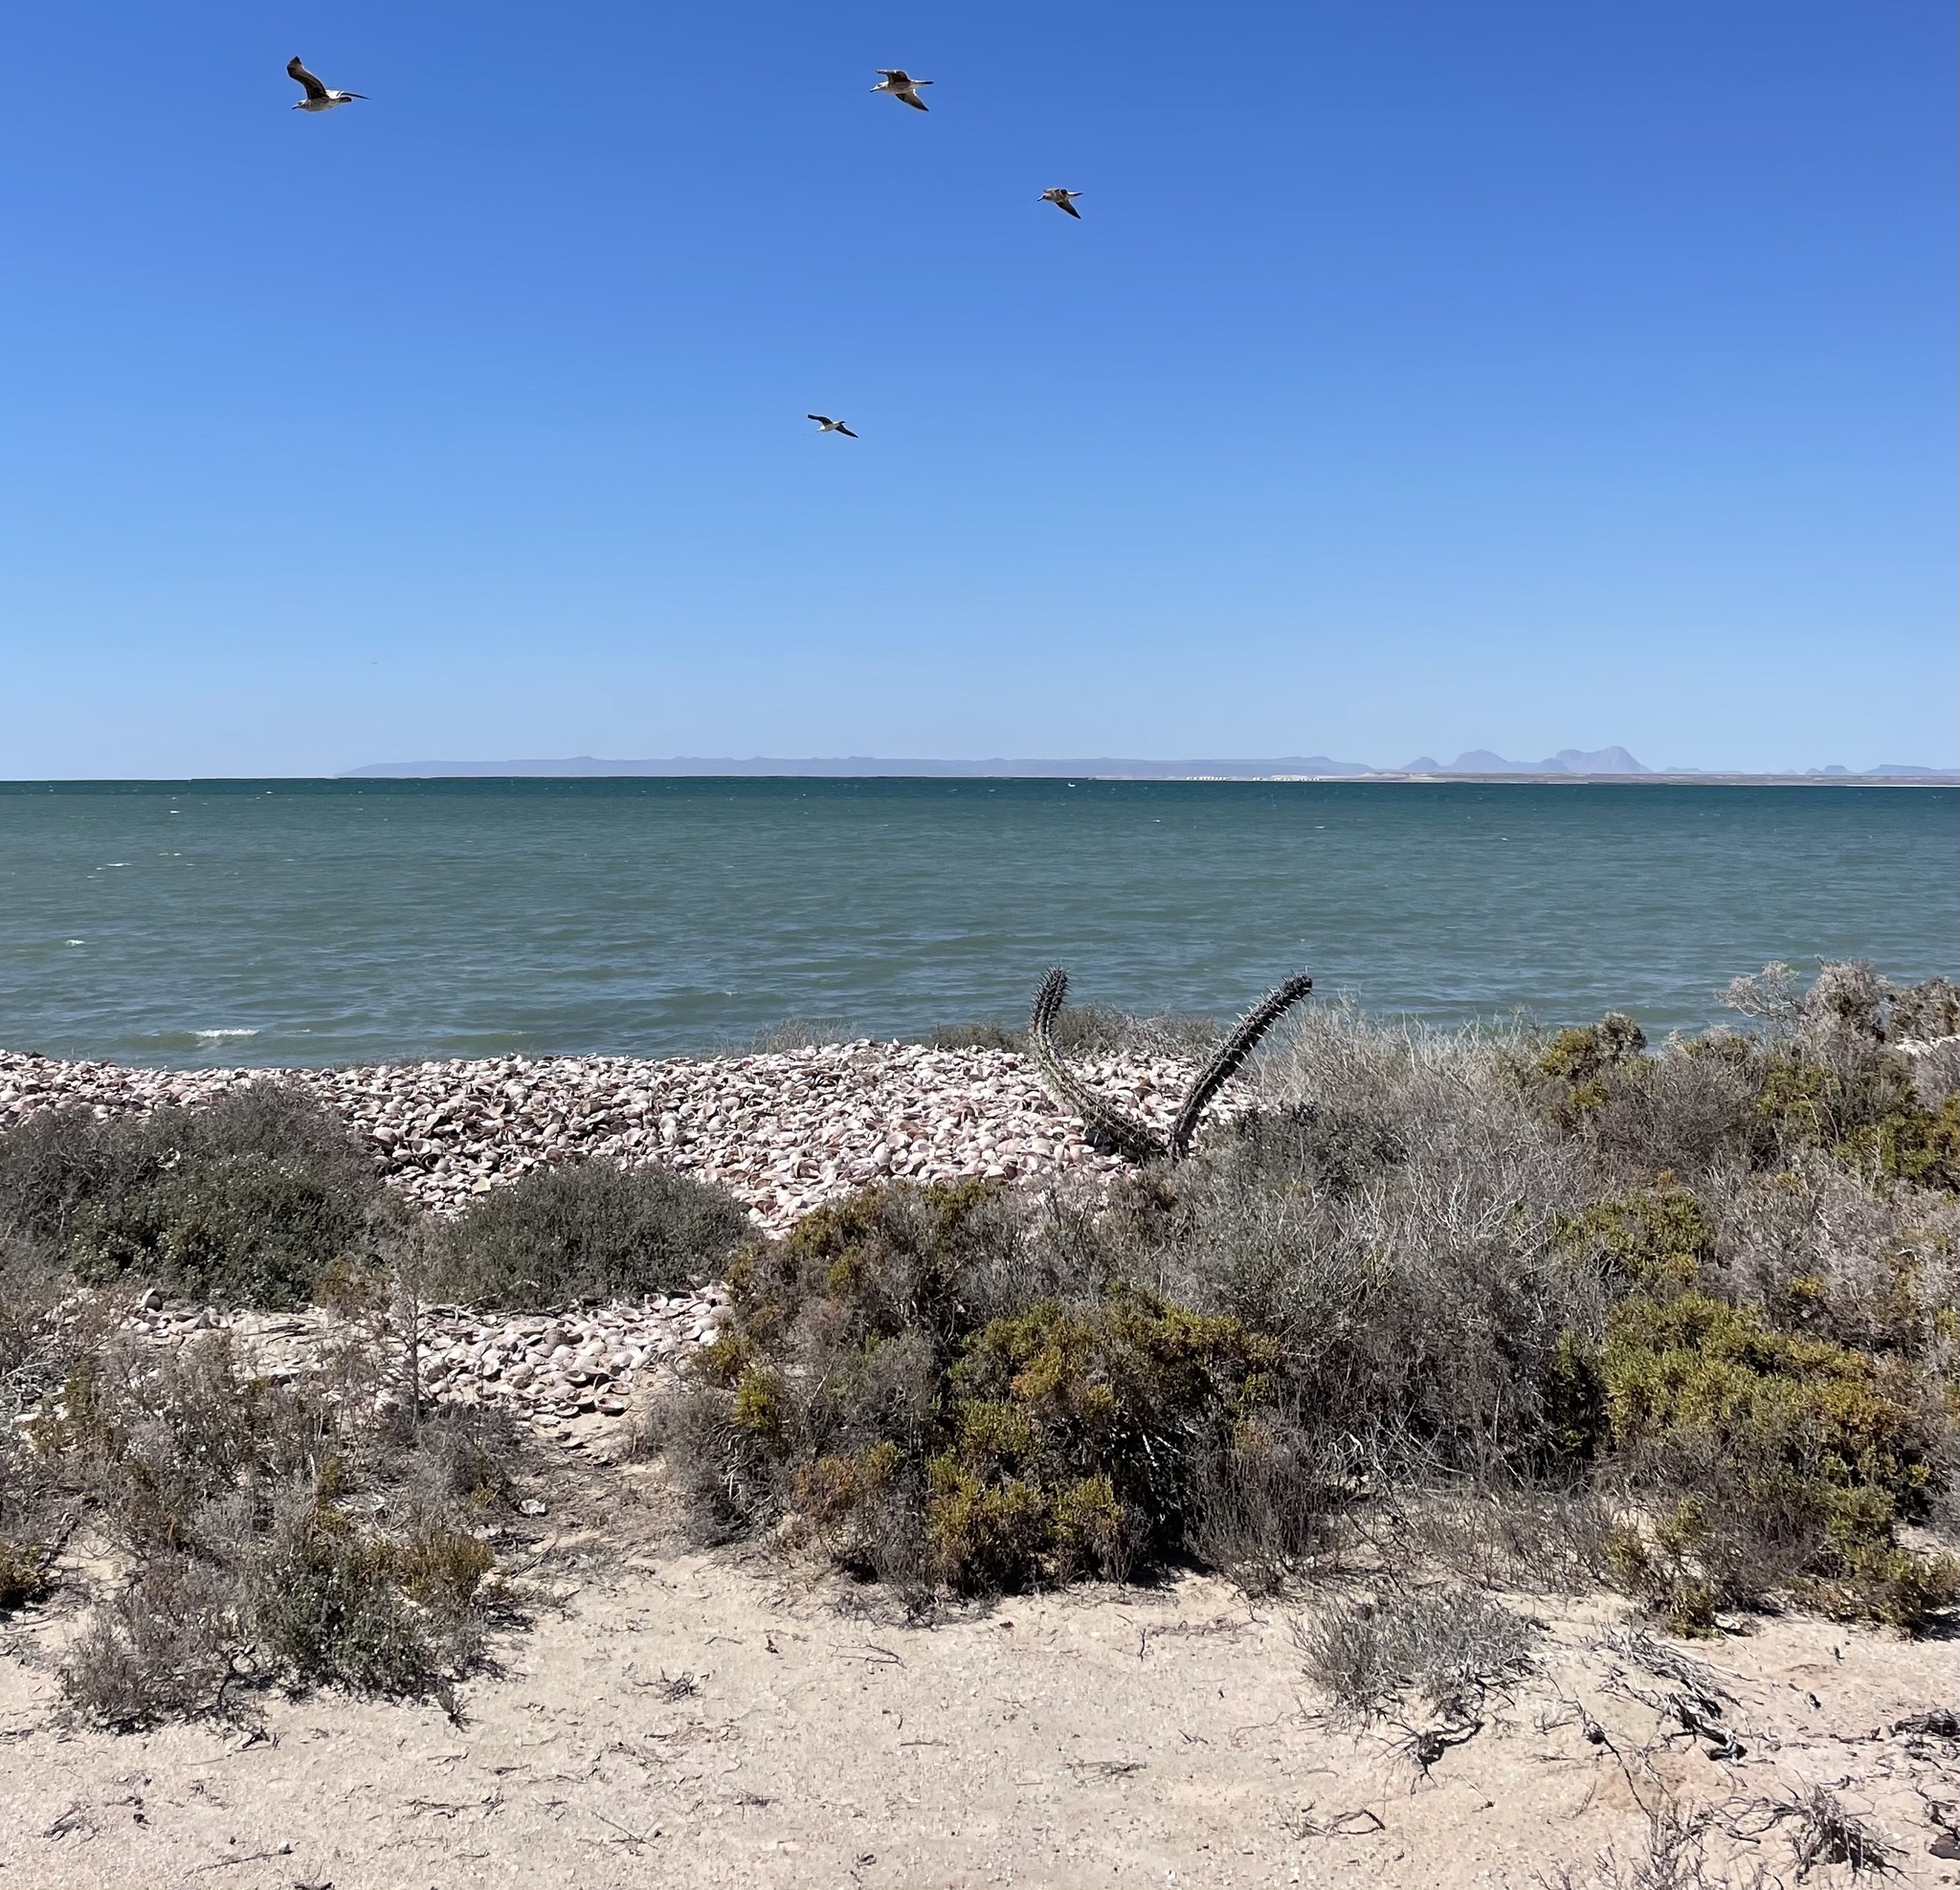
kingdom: Plantae
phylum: Tracheophyta
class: Magnoliopsida
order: Caryophyllales
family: Cactaceae
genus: Stenocereus
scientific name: Stenocereus gummosus
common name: Dagger cactus
